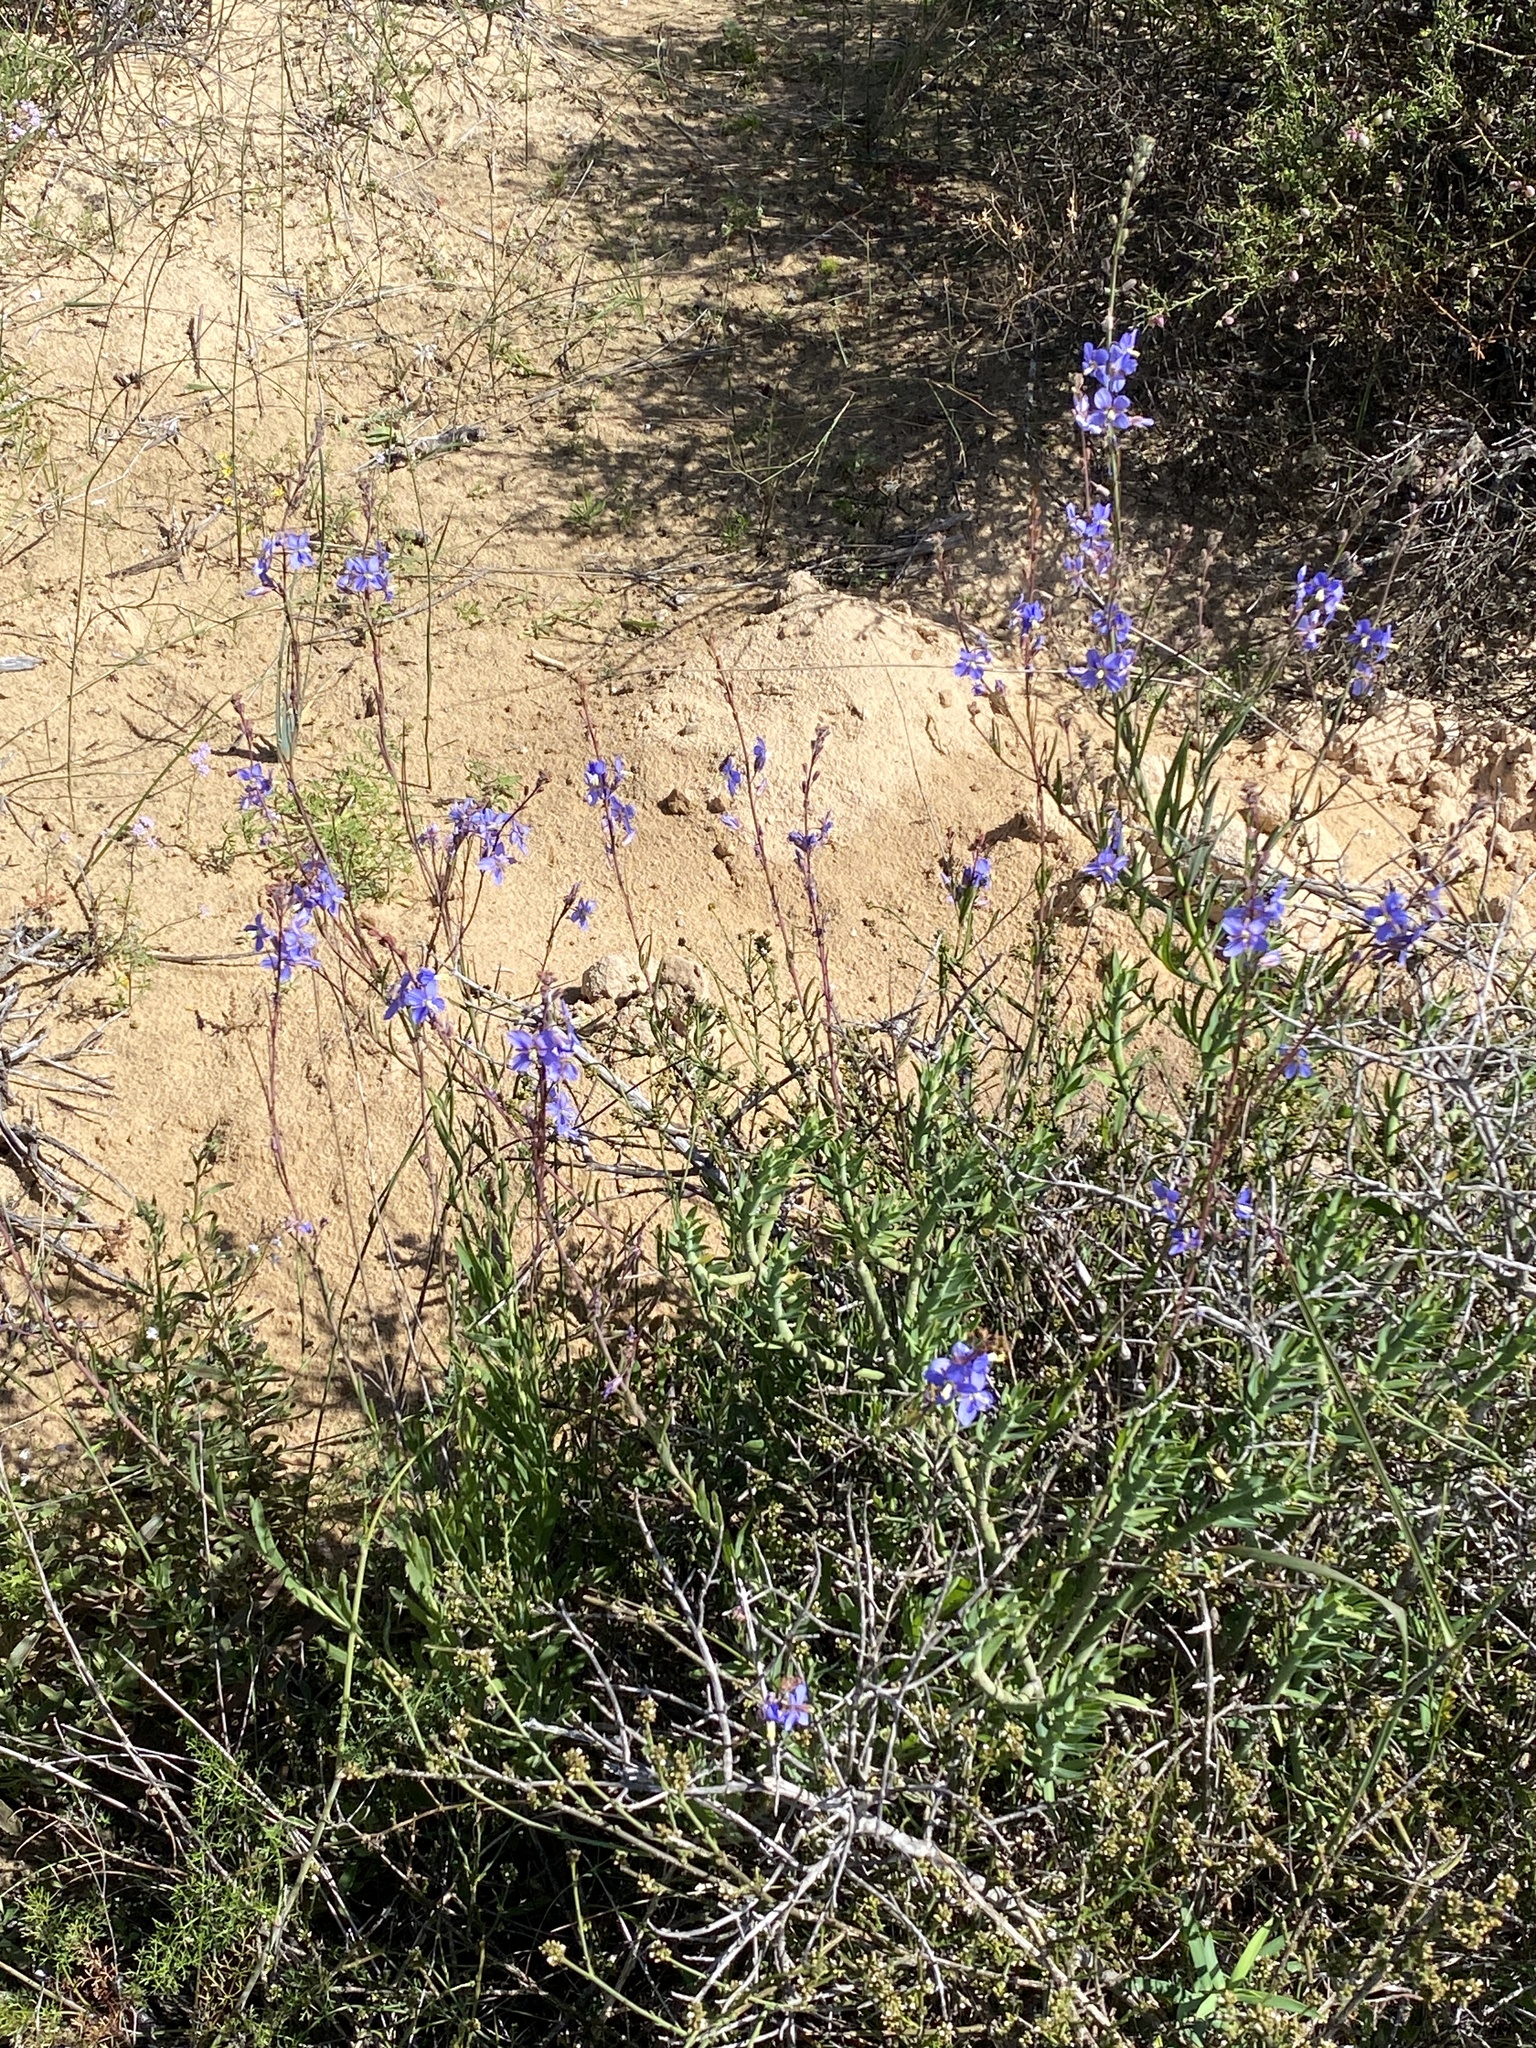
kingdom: Plantae
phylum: Tracheophyta
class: Magnoliopsida
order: Brassicales
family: Brassicaceae
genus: Heliophila
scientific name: Heliophila linearis
